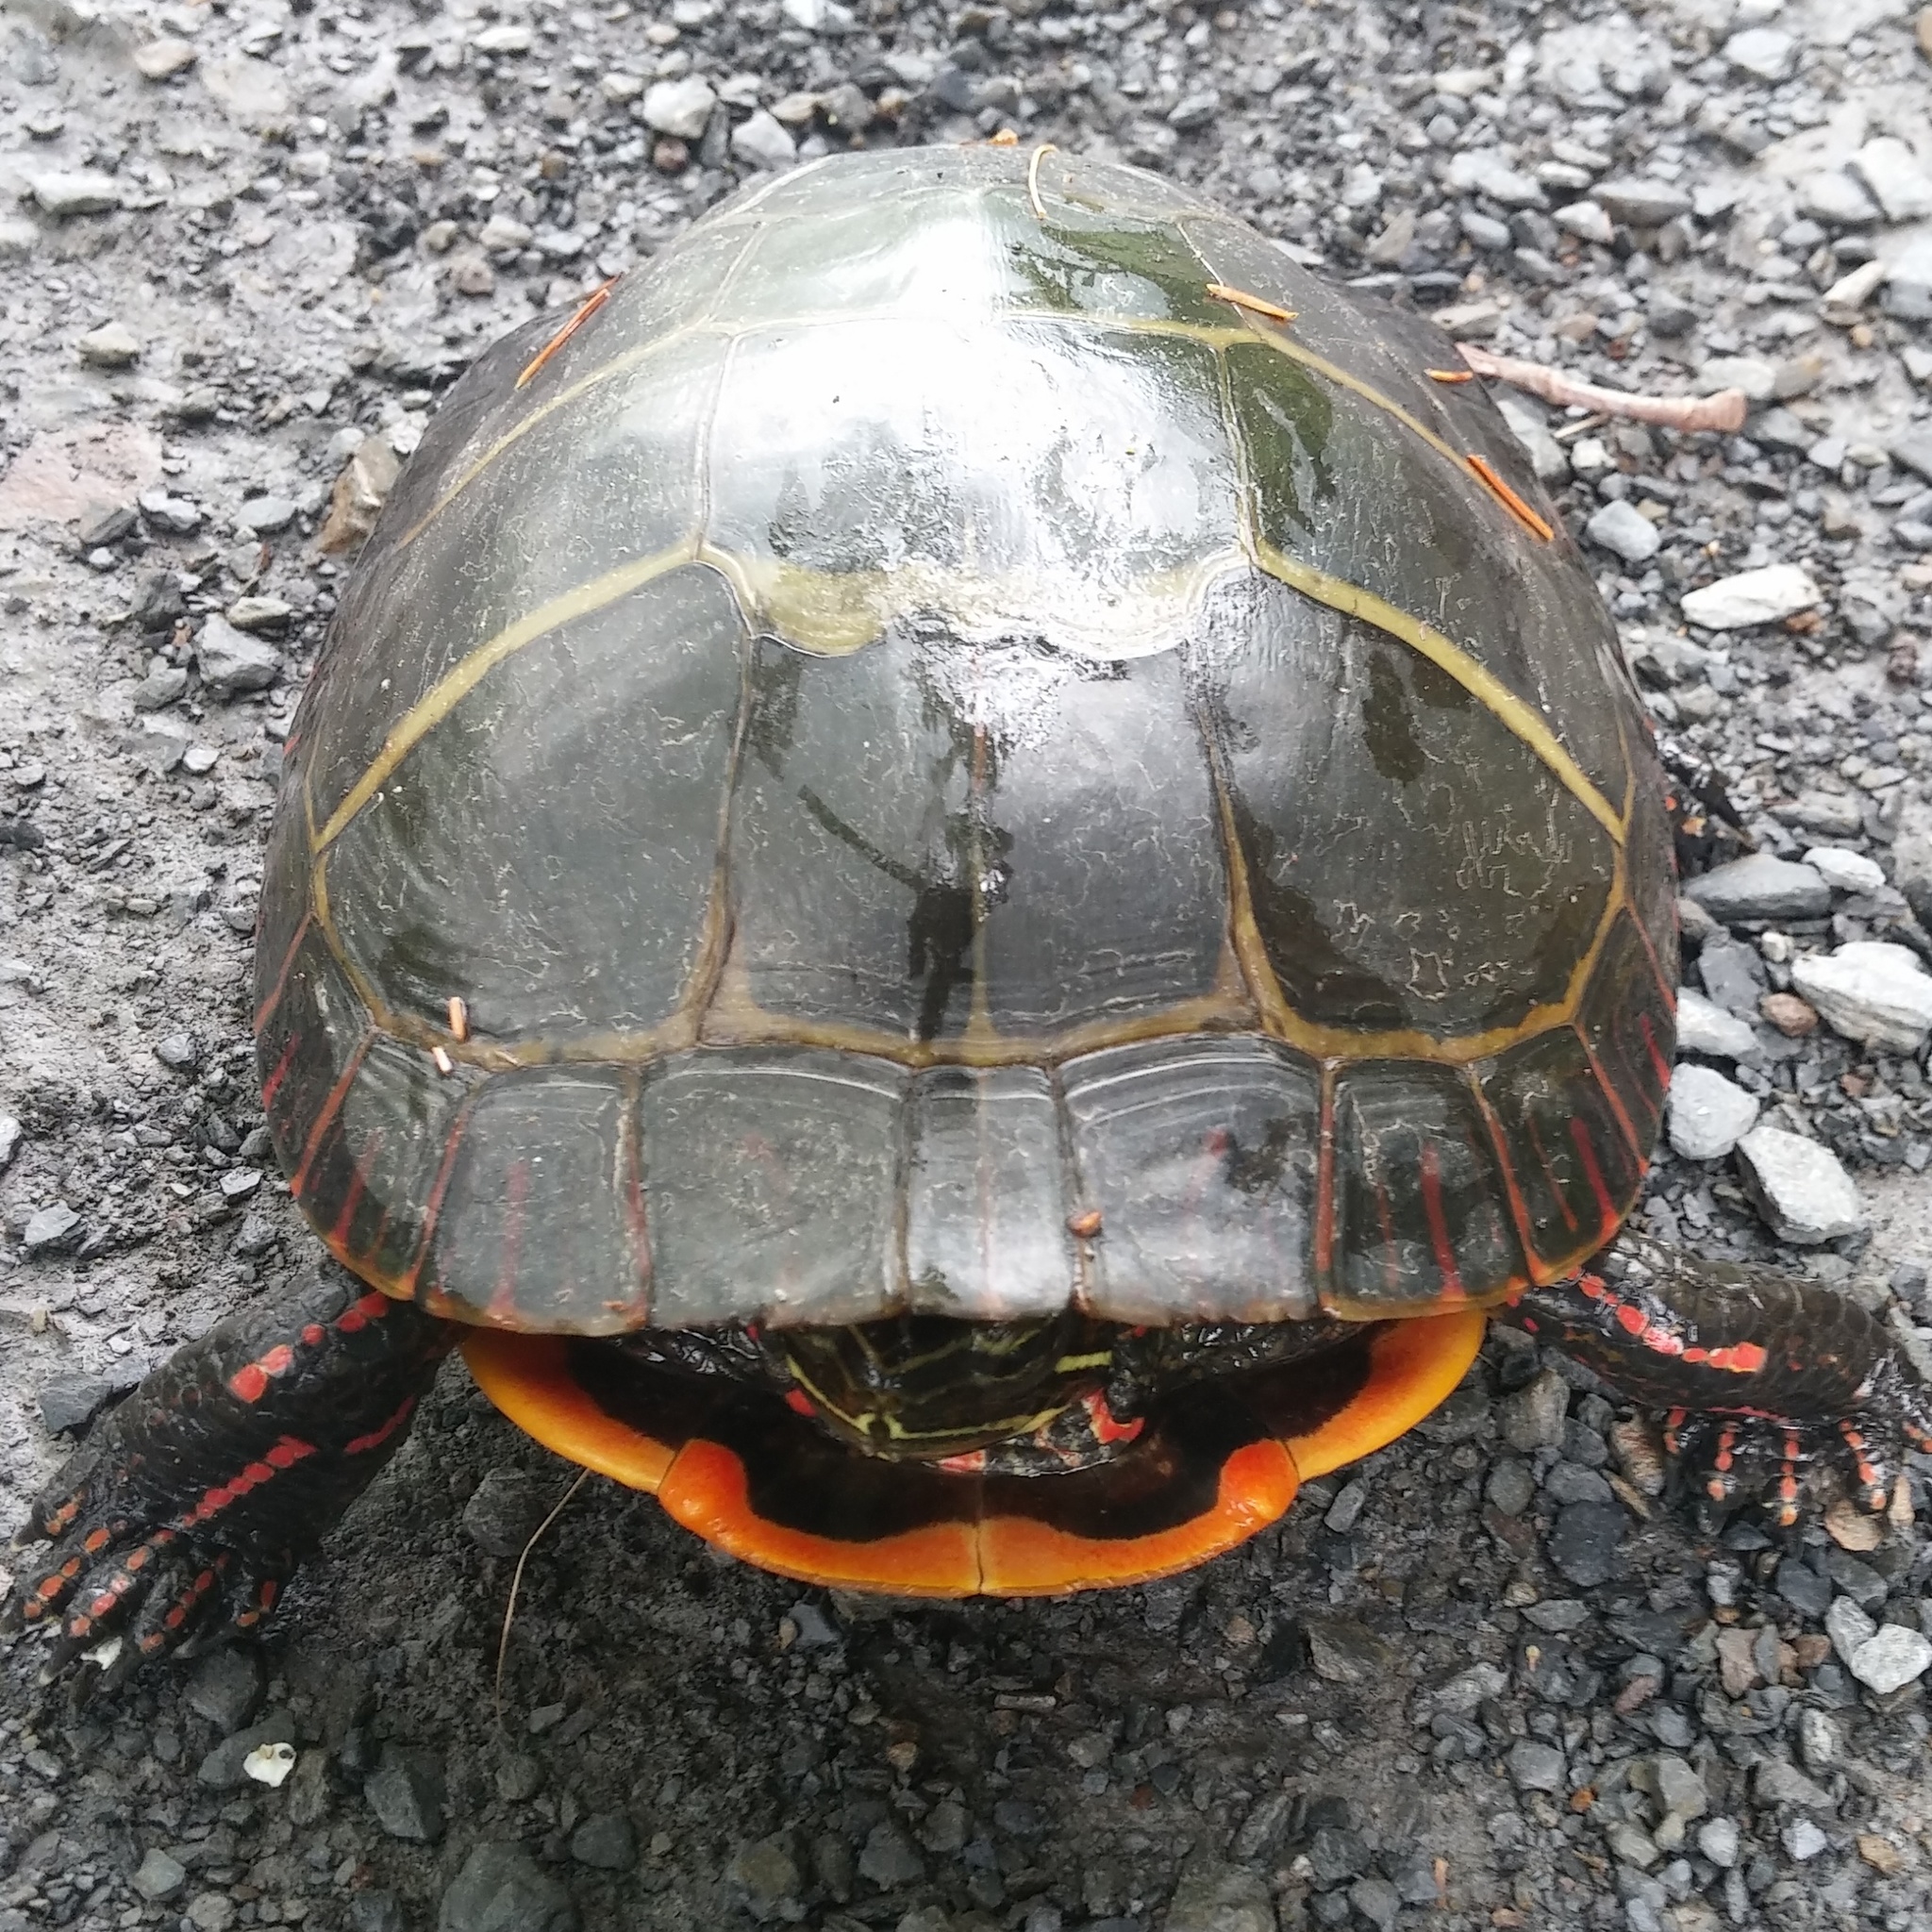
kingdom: Animalia
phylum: Chordata
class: Testudines
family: Emydidae
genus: Chrysemys
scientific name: Chrysemys picta
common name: Painted turtle
